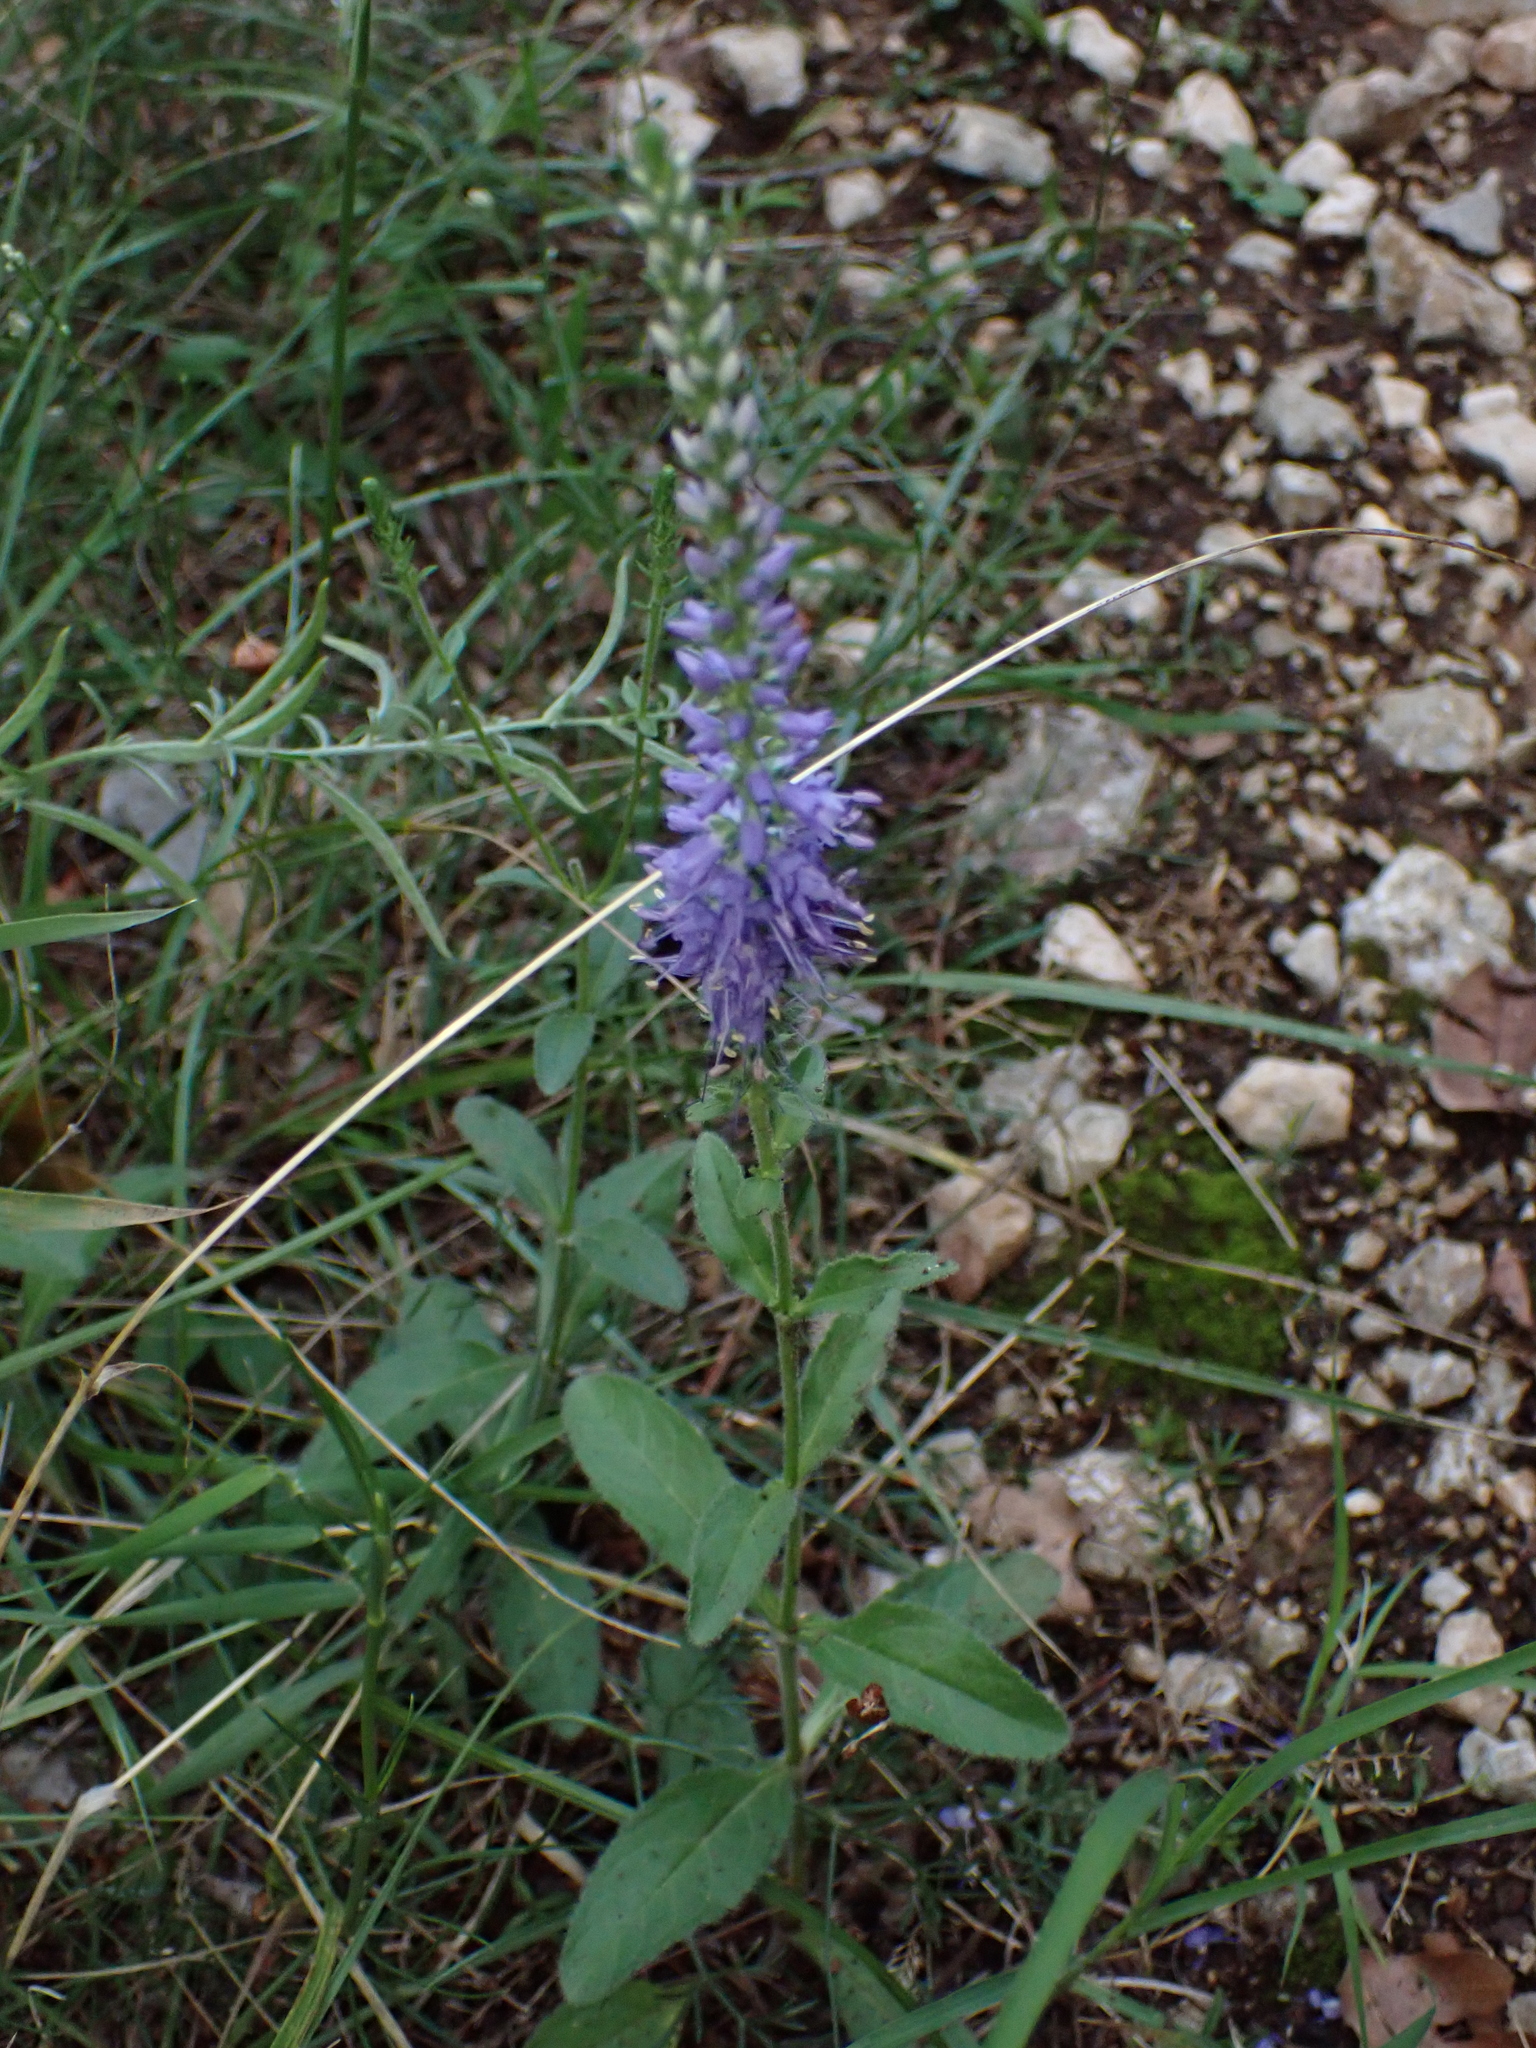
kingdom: Plantae
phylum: Tracheophyta
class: Magnoliopsida
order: Lamiales
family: Plantaginaceae
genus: Veronica
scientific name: Veronica barrelieri
